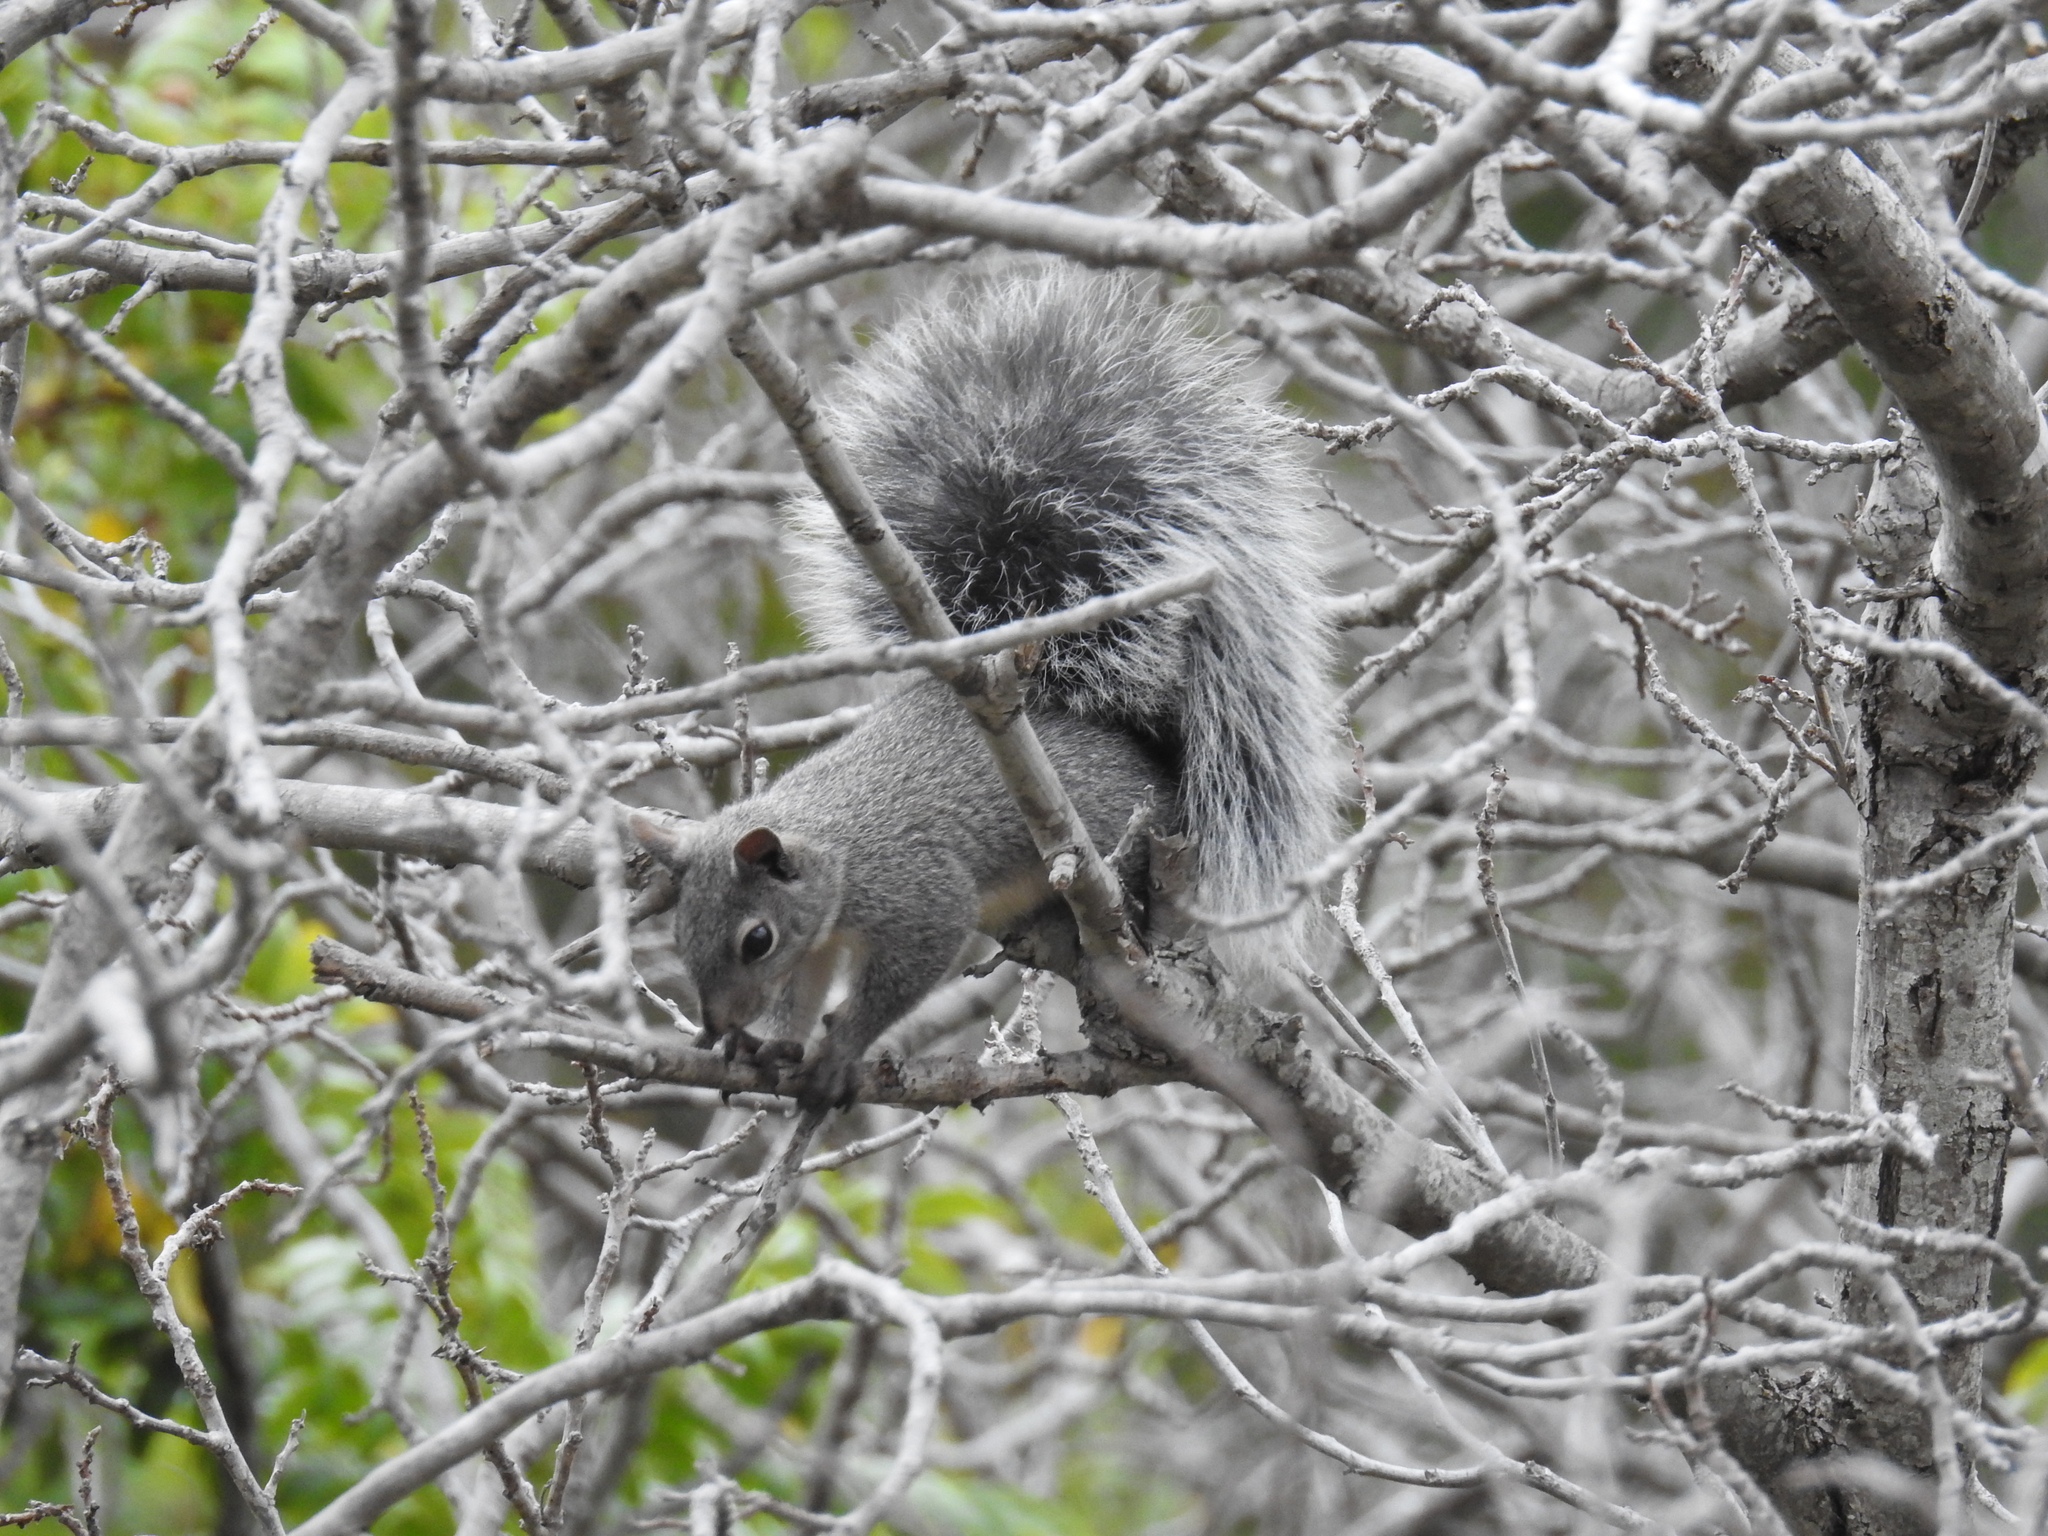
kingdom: Animalia
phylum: Chordata
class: Mammalia
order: Rodentia
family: Sciuridae
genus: Sciurus
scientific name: Sciurus griseus
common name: Western gray squirrel
